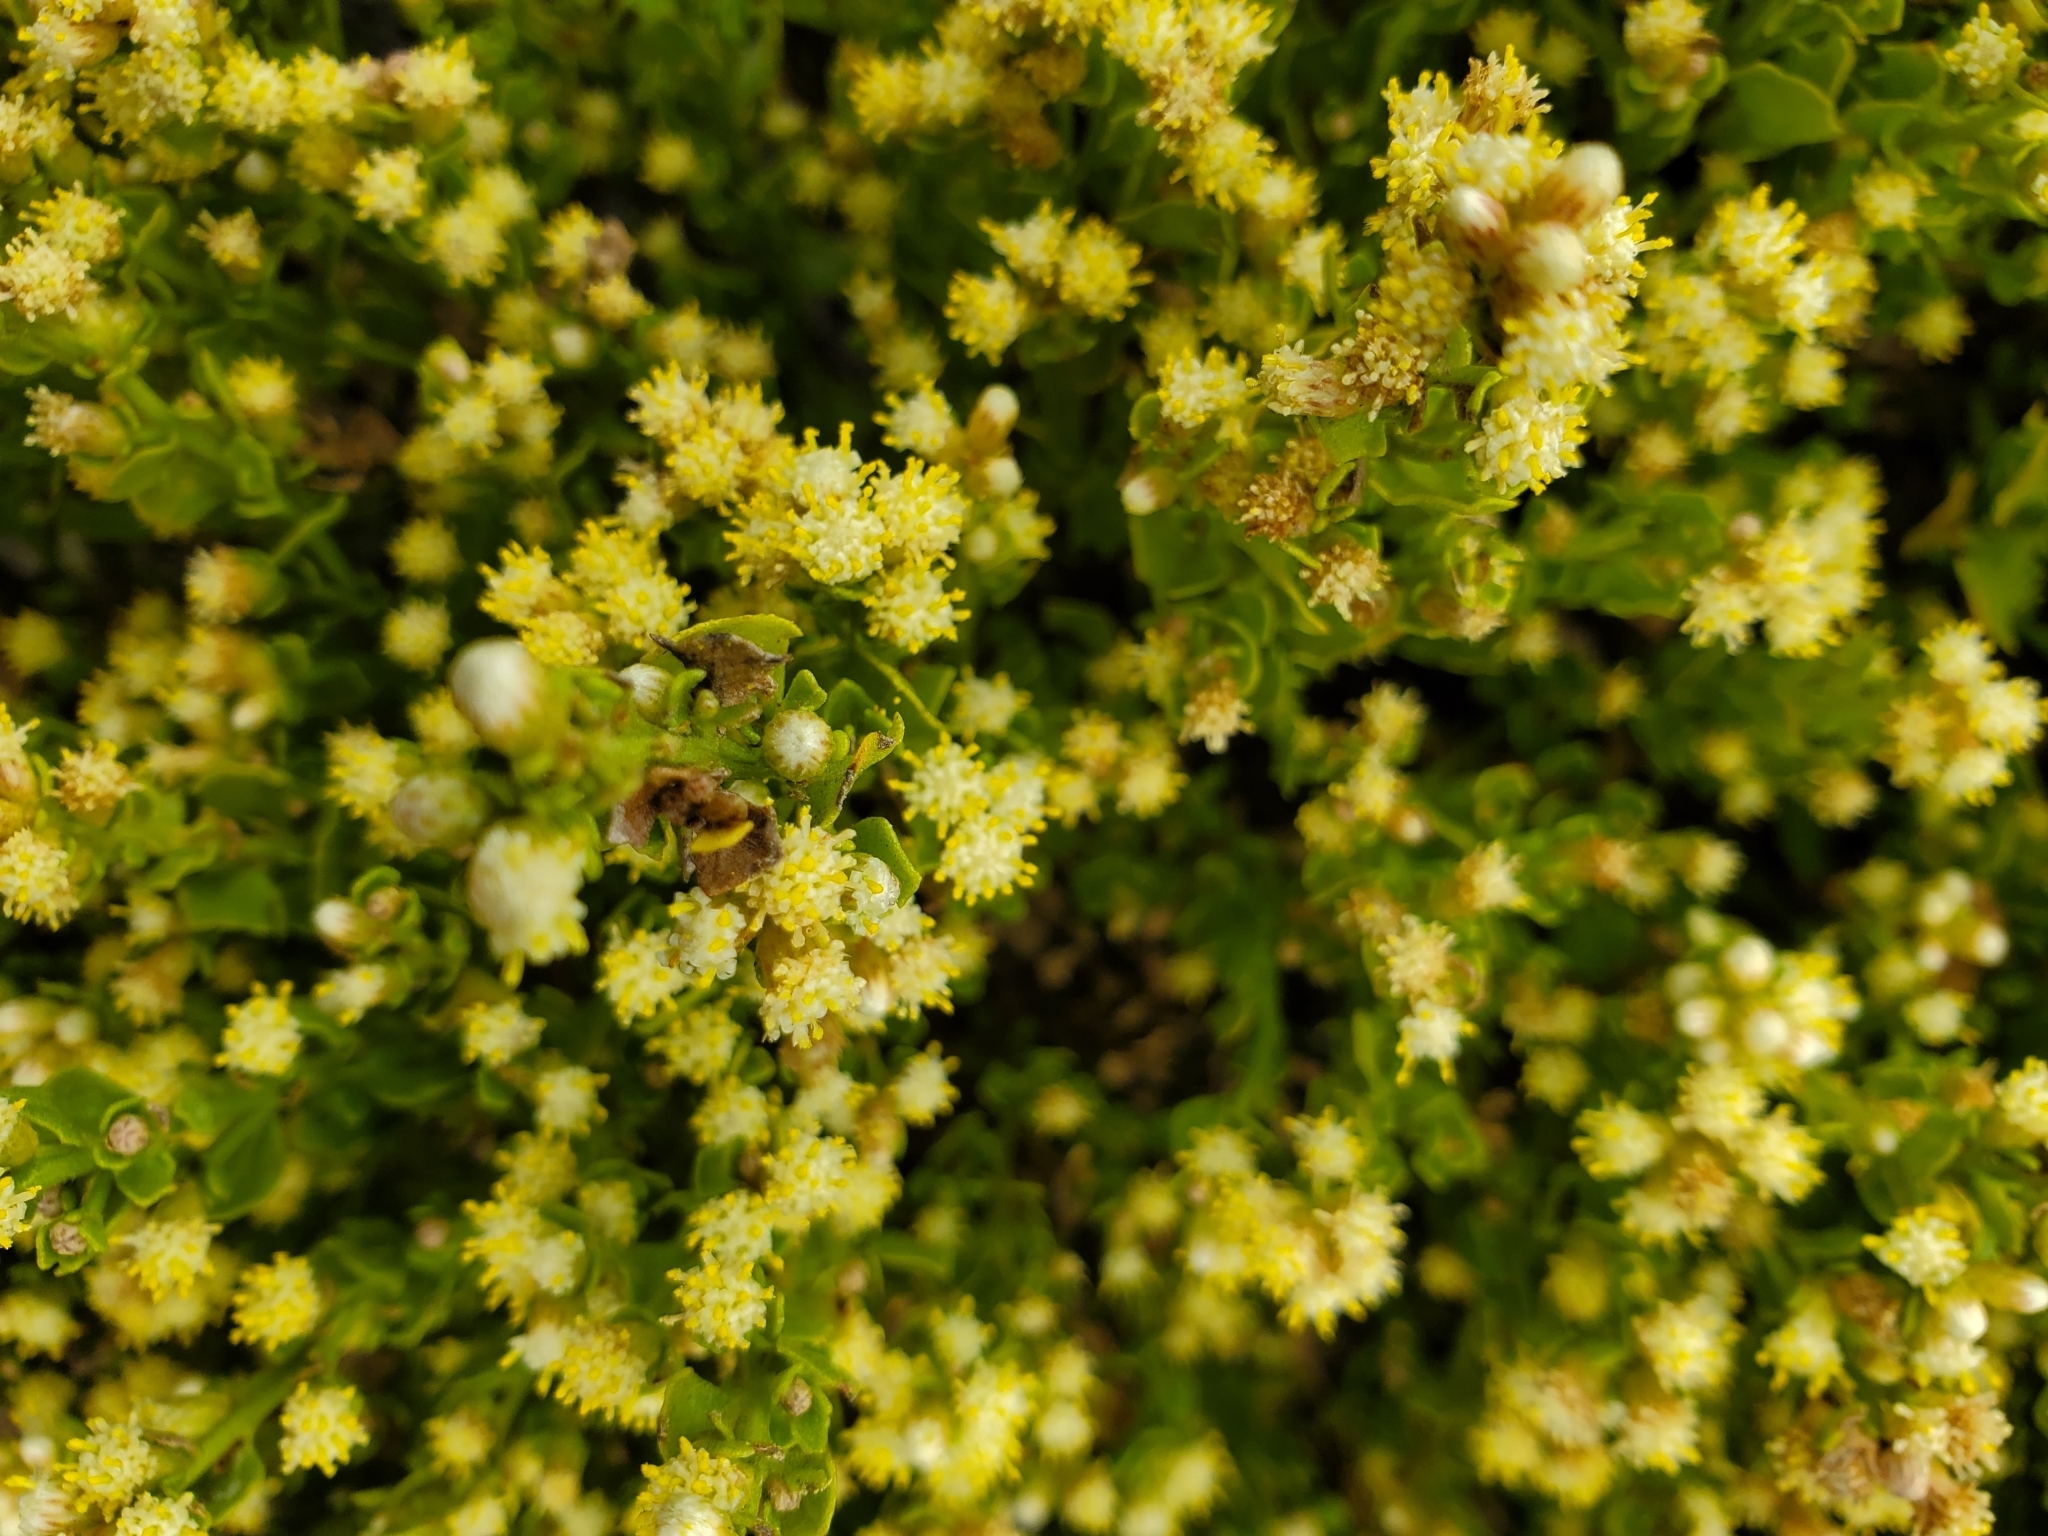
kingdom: Plantae
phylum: Tracheophyta
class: Magnoliopsida
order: Asterales
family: Asteraceae
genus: Baccharis
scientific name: Baccharis pilularis
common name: Coyotebrush
